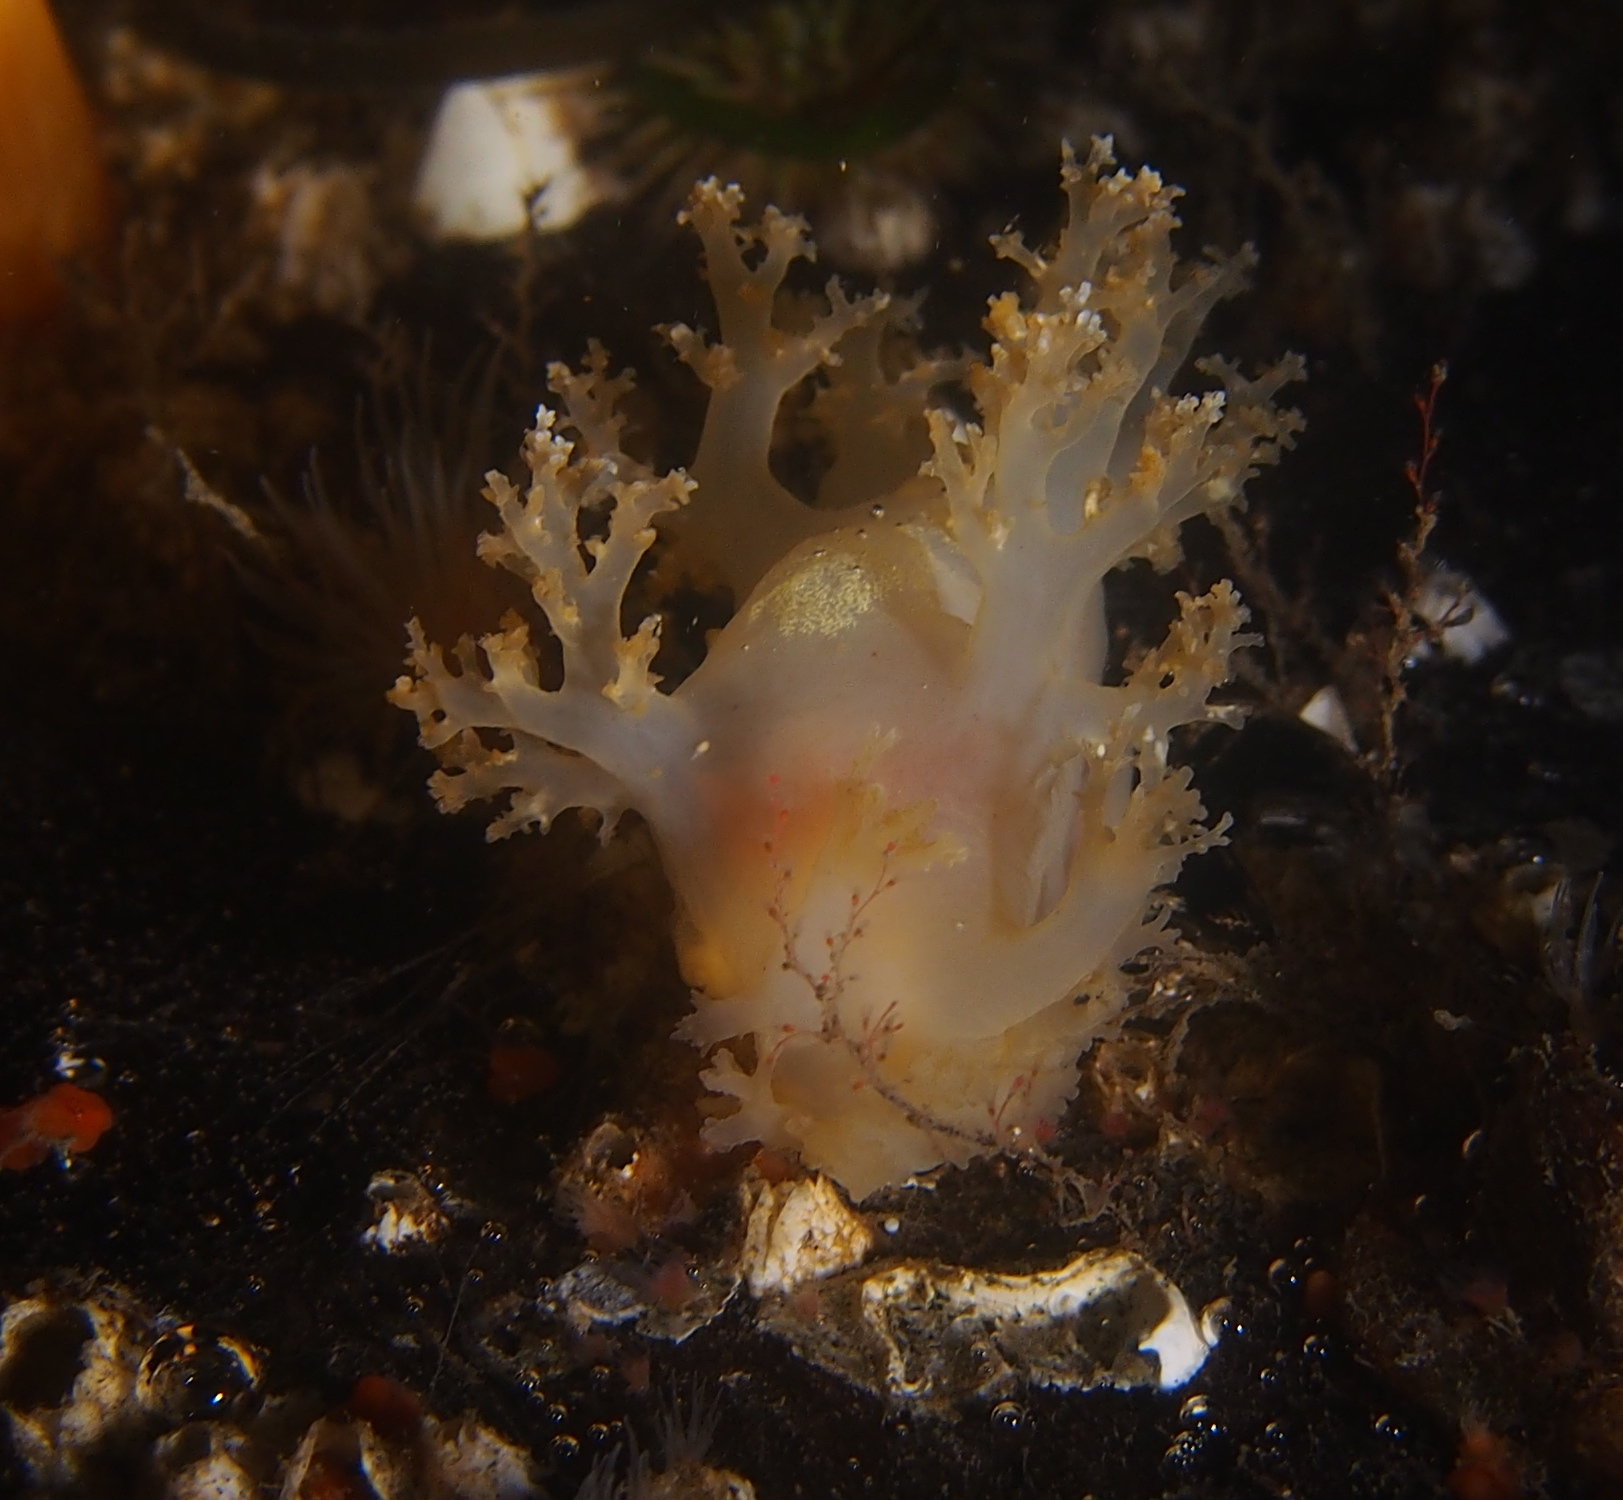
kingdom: Animalia
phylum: Mollusca
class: Gastropoda
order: Nudibranchia
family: Dendronotidae
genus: Dendronotus
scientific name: Dendronotus lacteus
